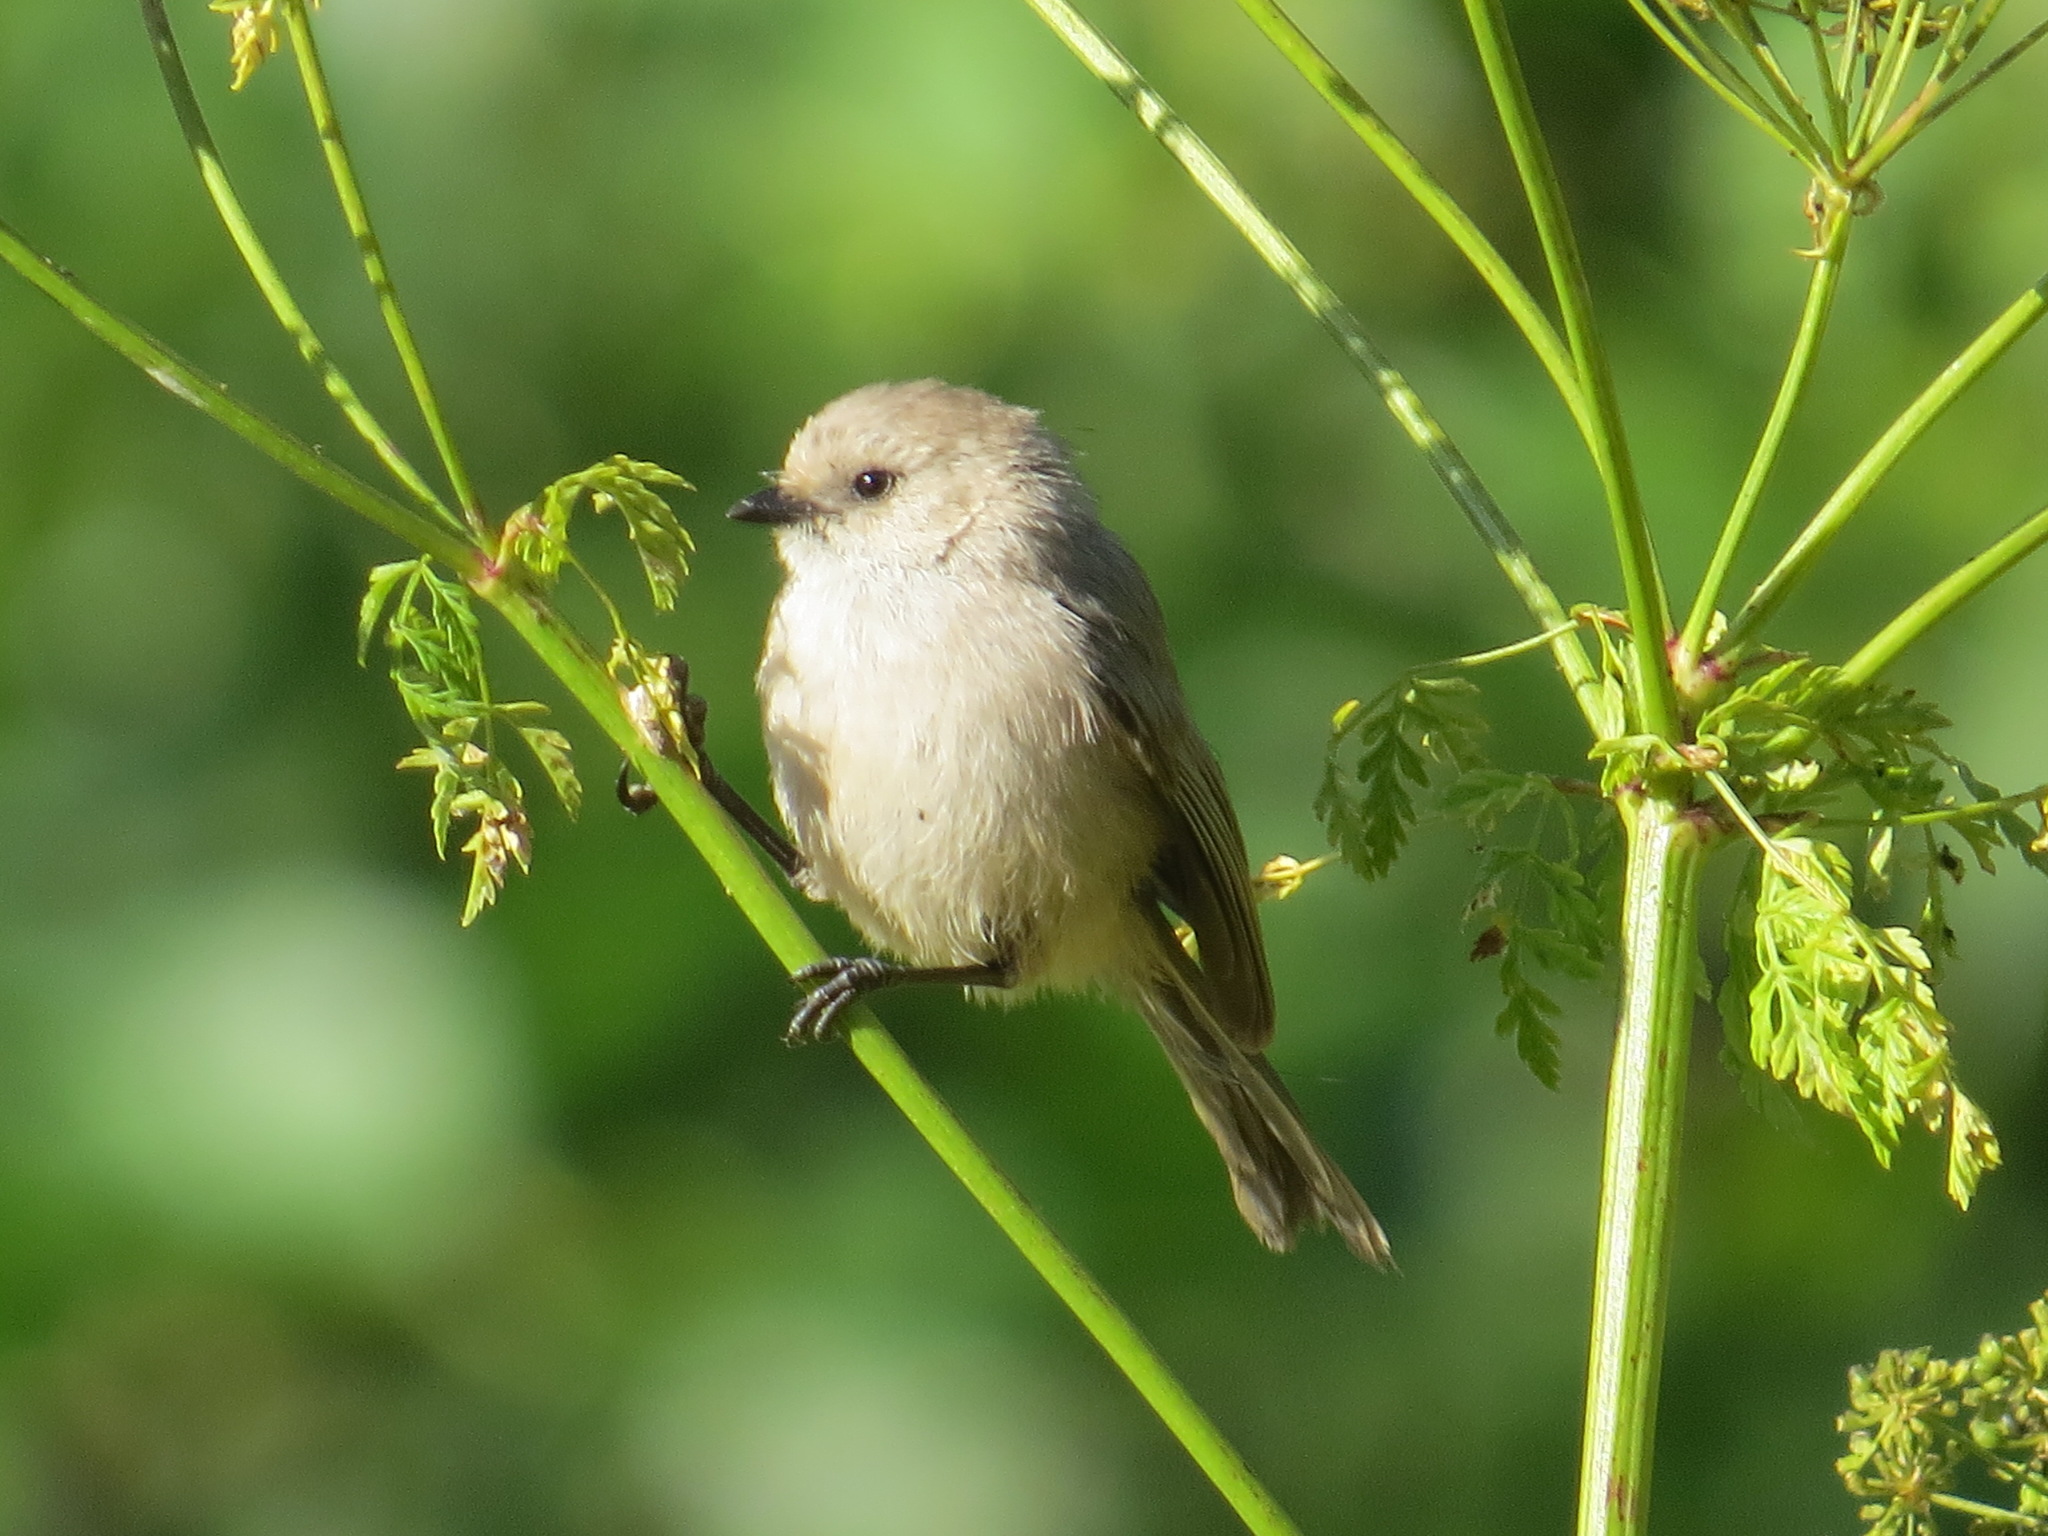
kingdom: Animalia
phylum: Chordata
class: Aves
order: Passeriformes
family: Aegithalidae
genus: Psaltriparus
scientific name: Psaltriparus minimus
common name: American bushtit
